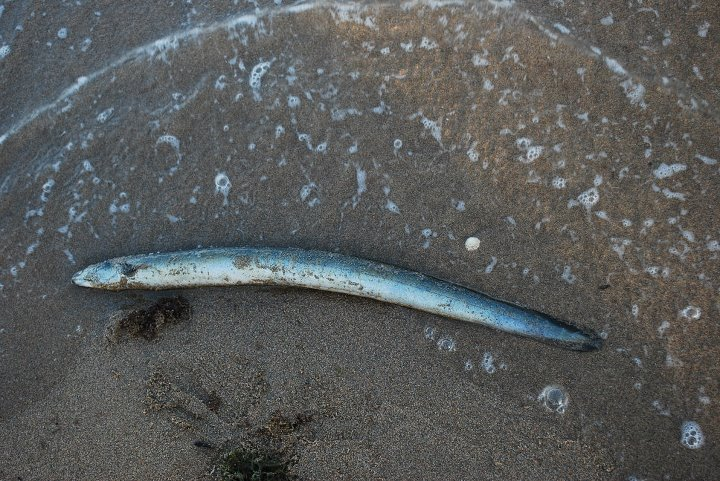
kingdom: Animalia
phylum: Chordata
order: Anguilliformes
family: Congridae
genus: Conger
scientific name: Conger conger
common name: Conger eel
